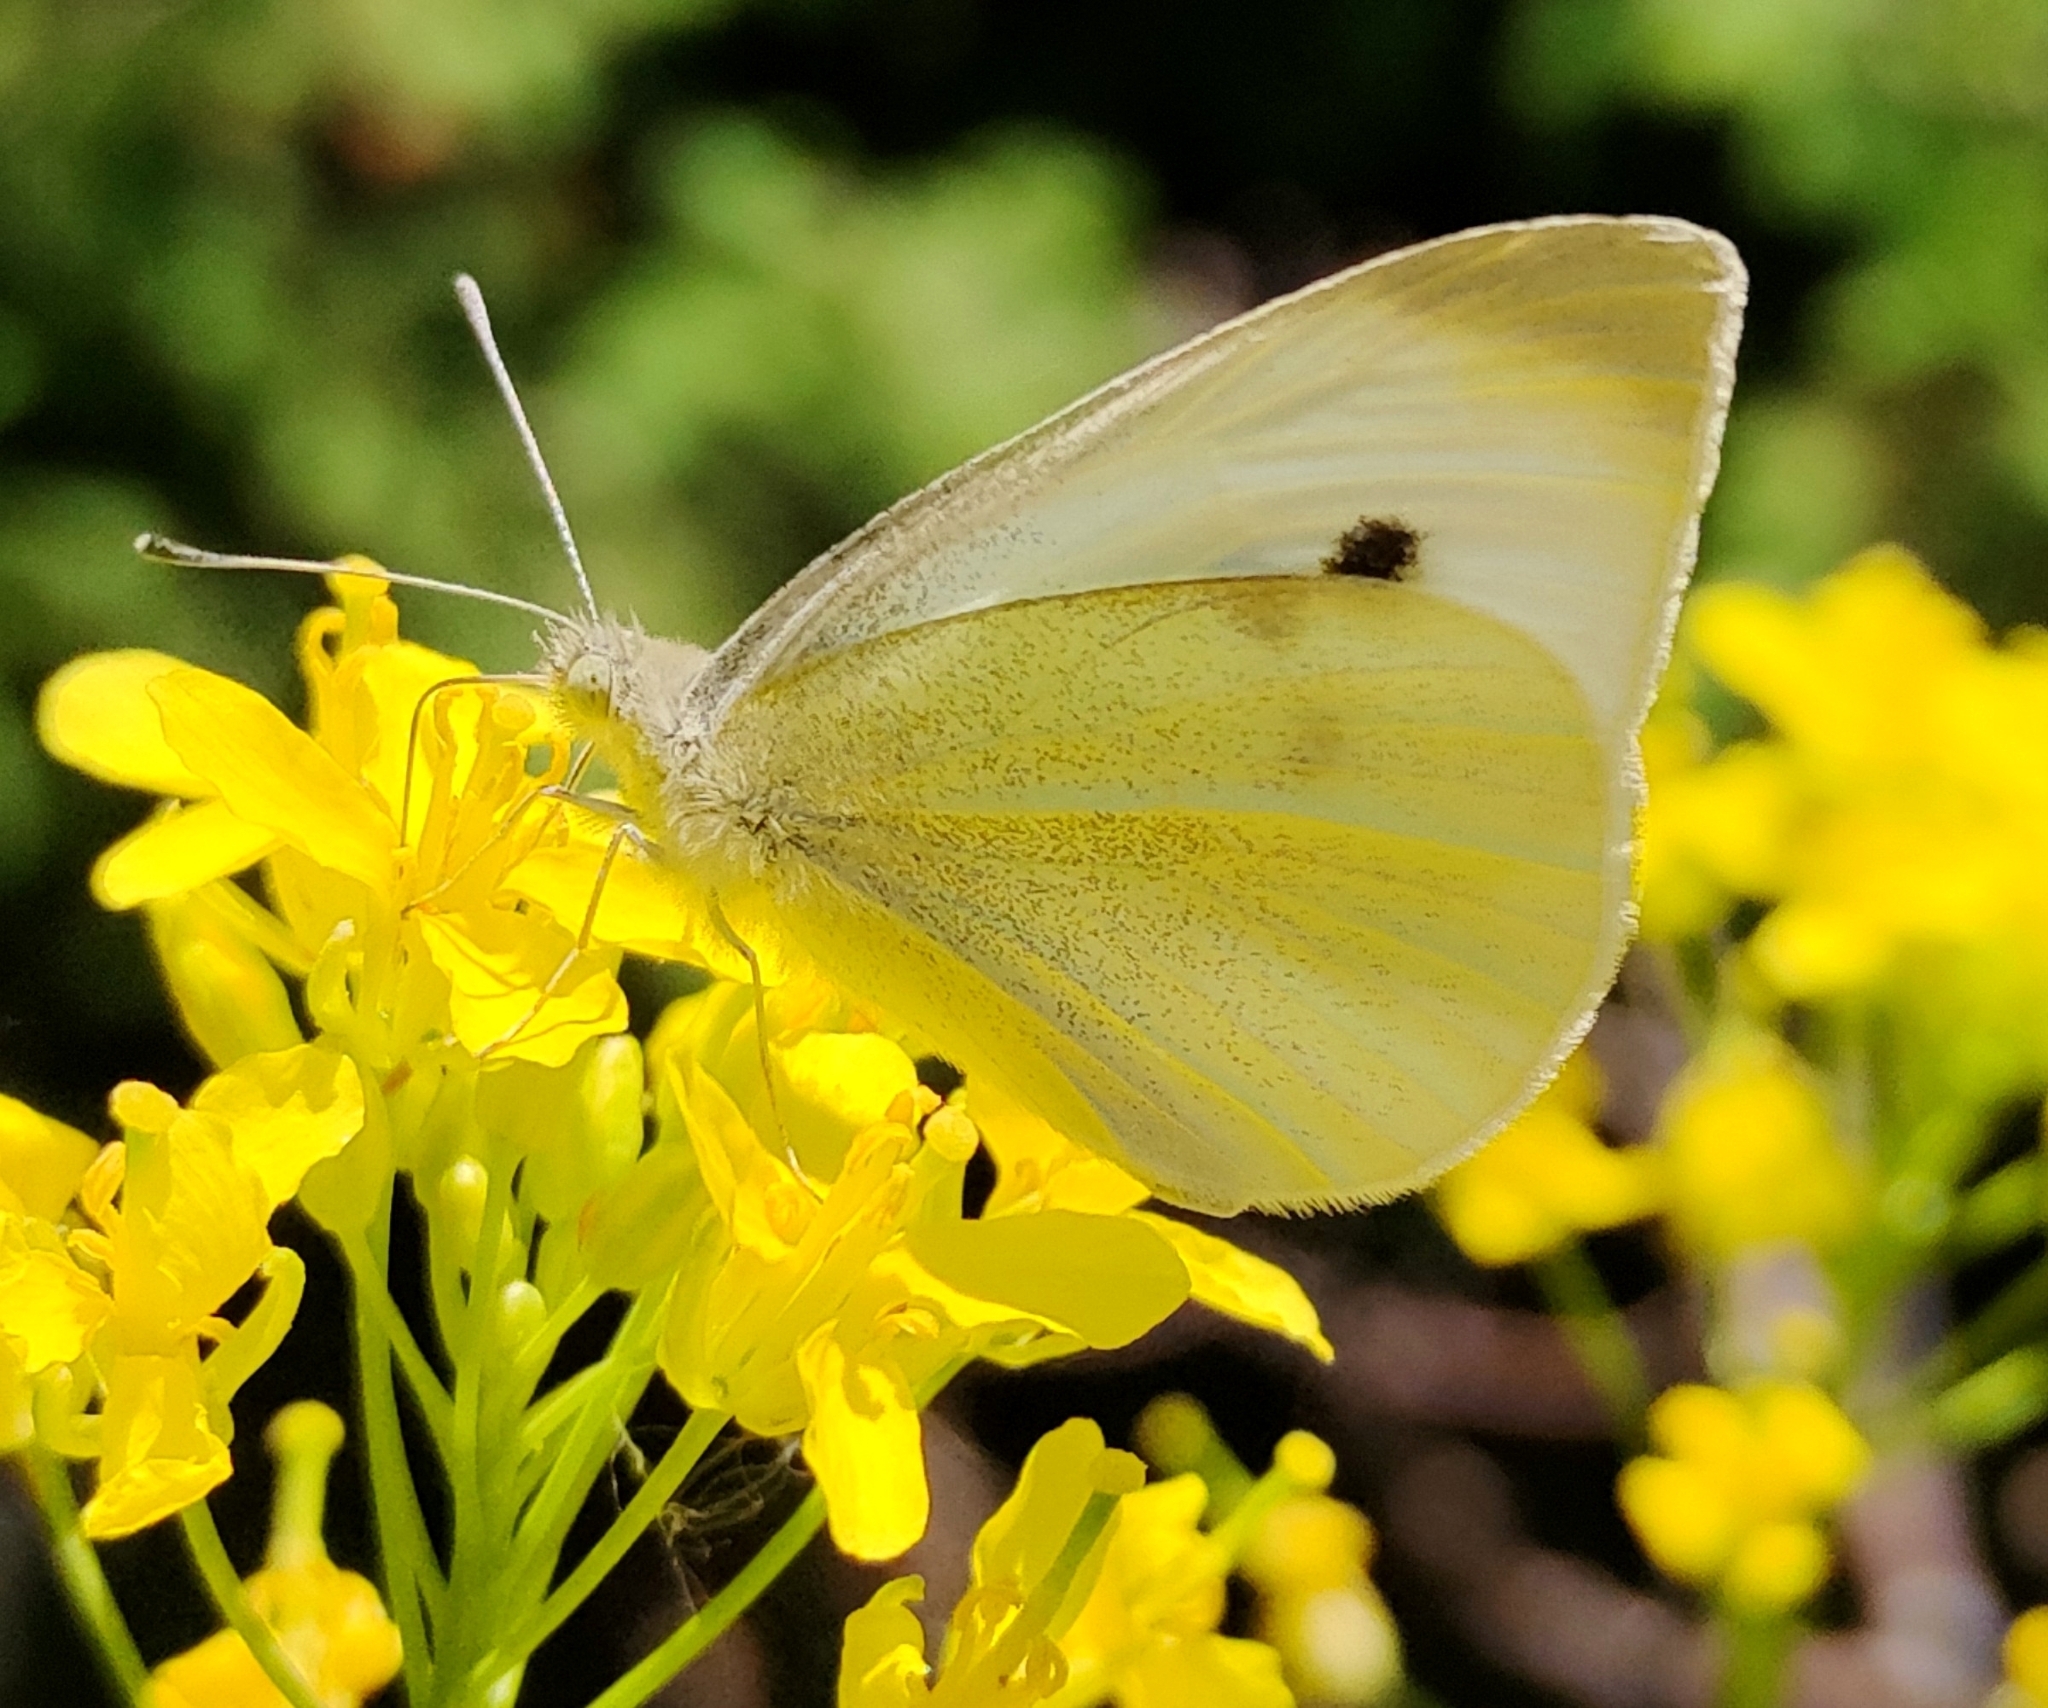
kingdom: Animalia
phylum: Arthropoda
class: Insecta
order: Lepidoptera
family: Pieridae
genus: Pieris
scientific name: Pieris rapae
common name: Small white
